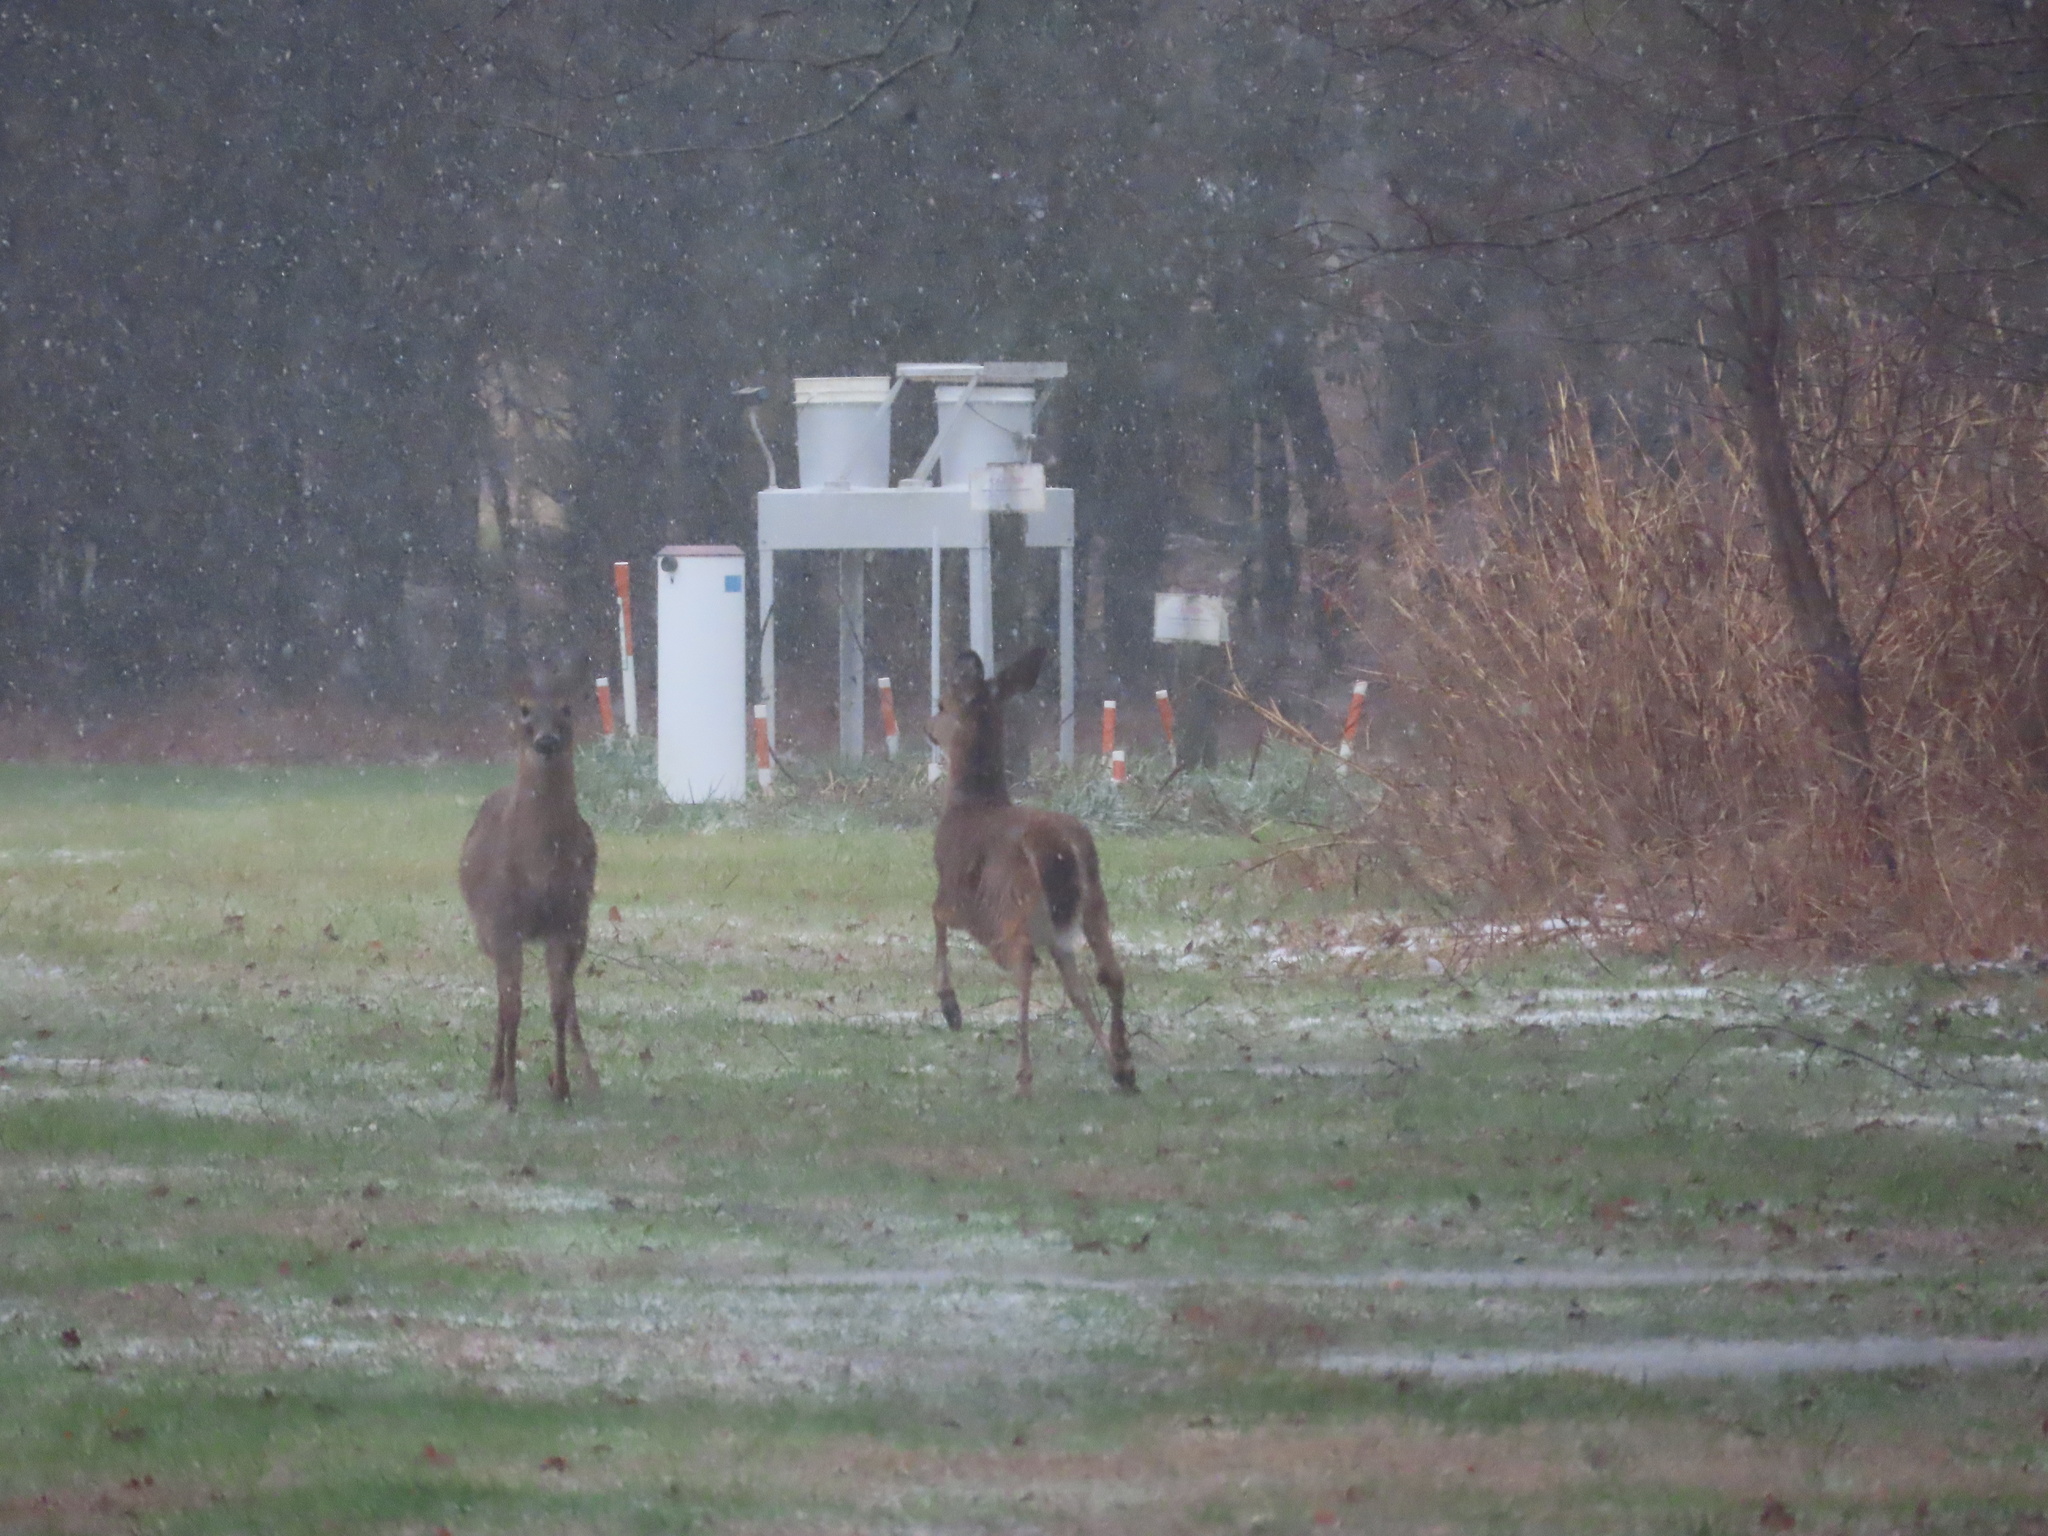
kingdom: Animalia
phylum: Chordata
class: Mammalia
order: Artiodactyla
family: Cervidae
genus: Odocoileus
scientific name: Odocoileus virginianus
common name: White-tailed deer
